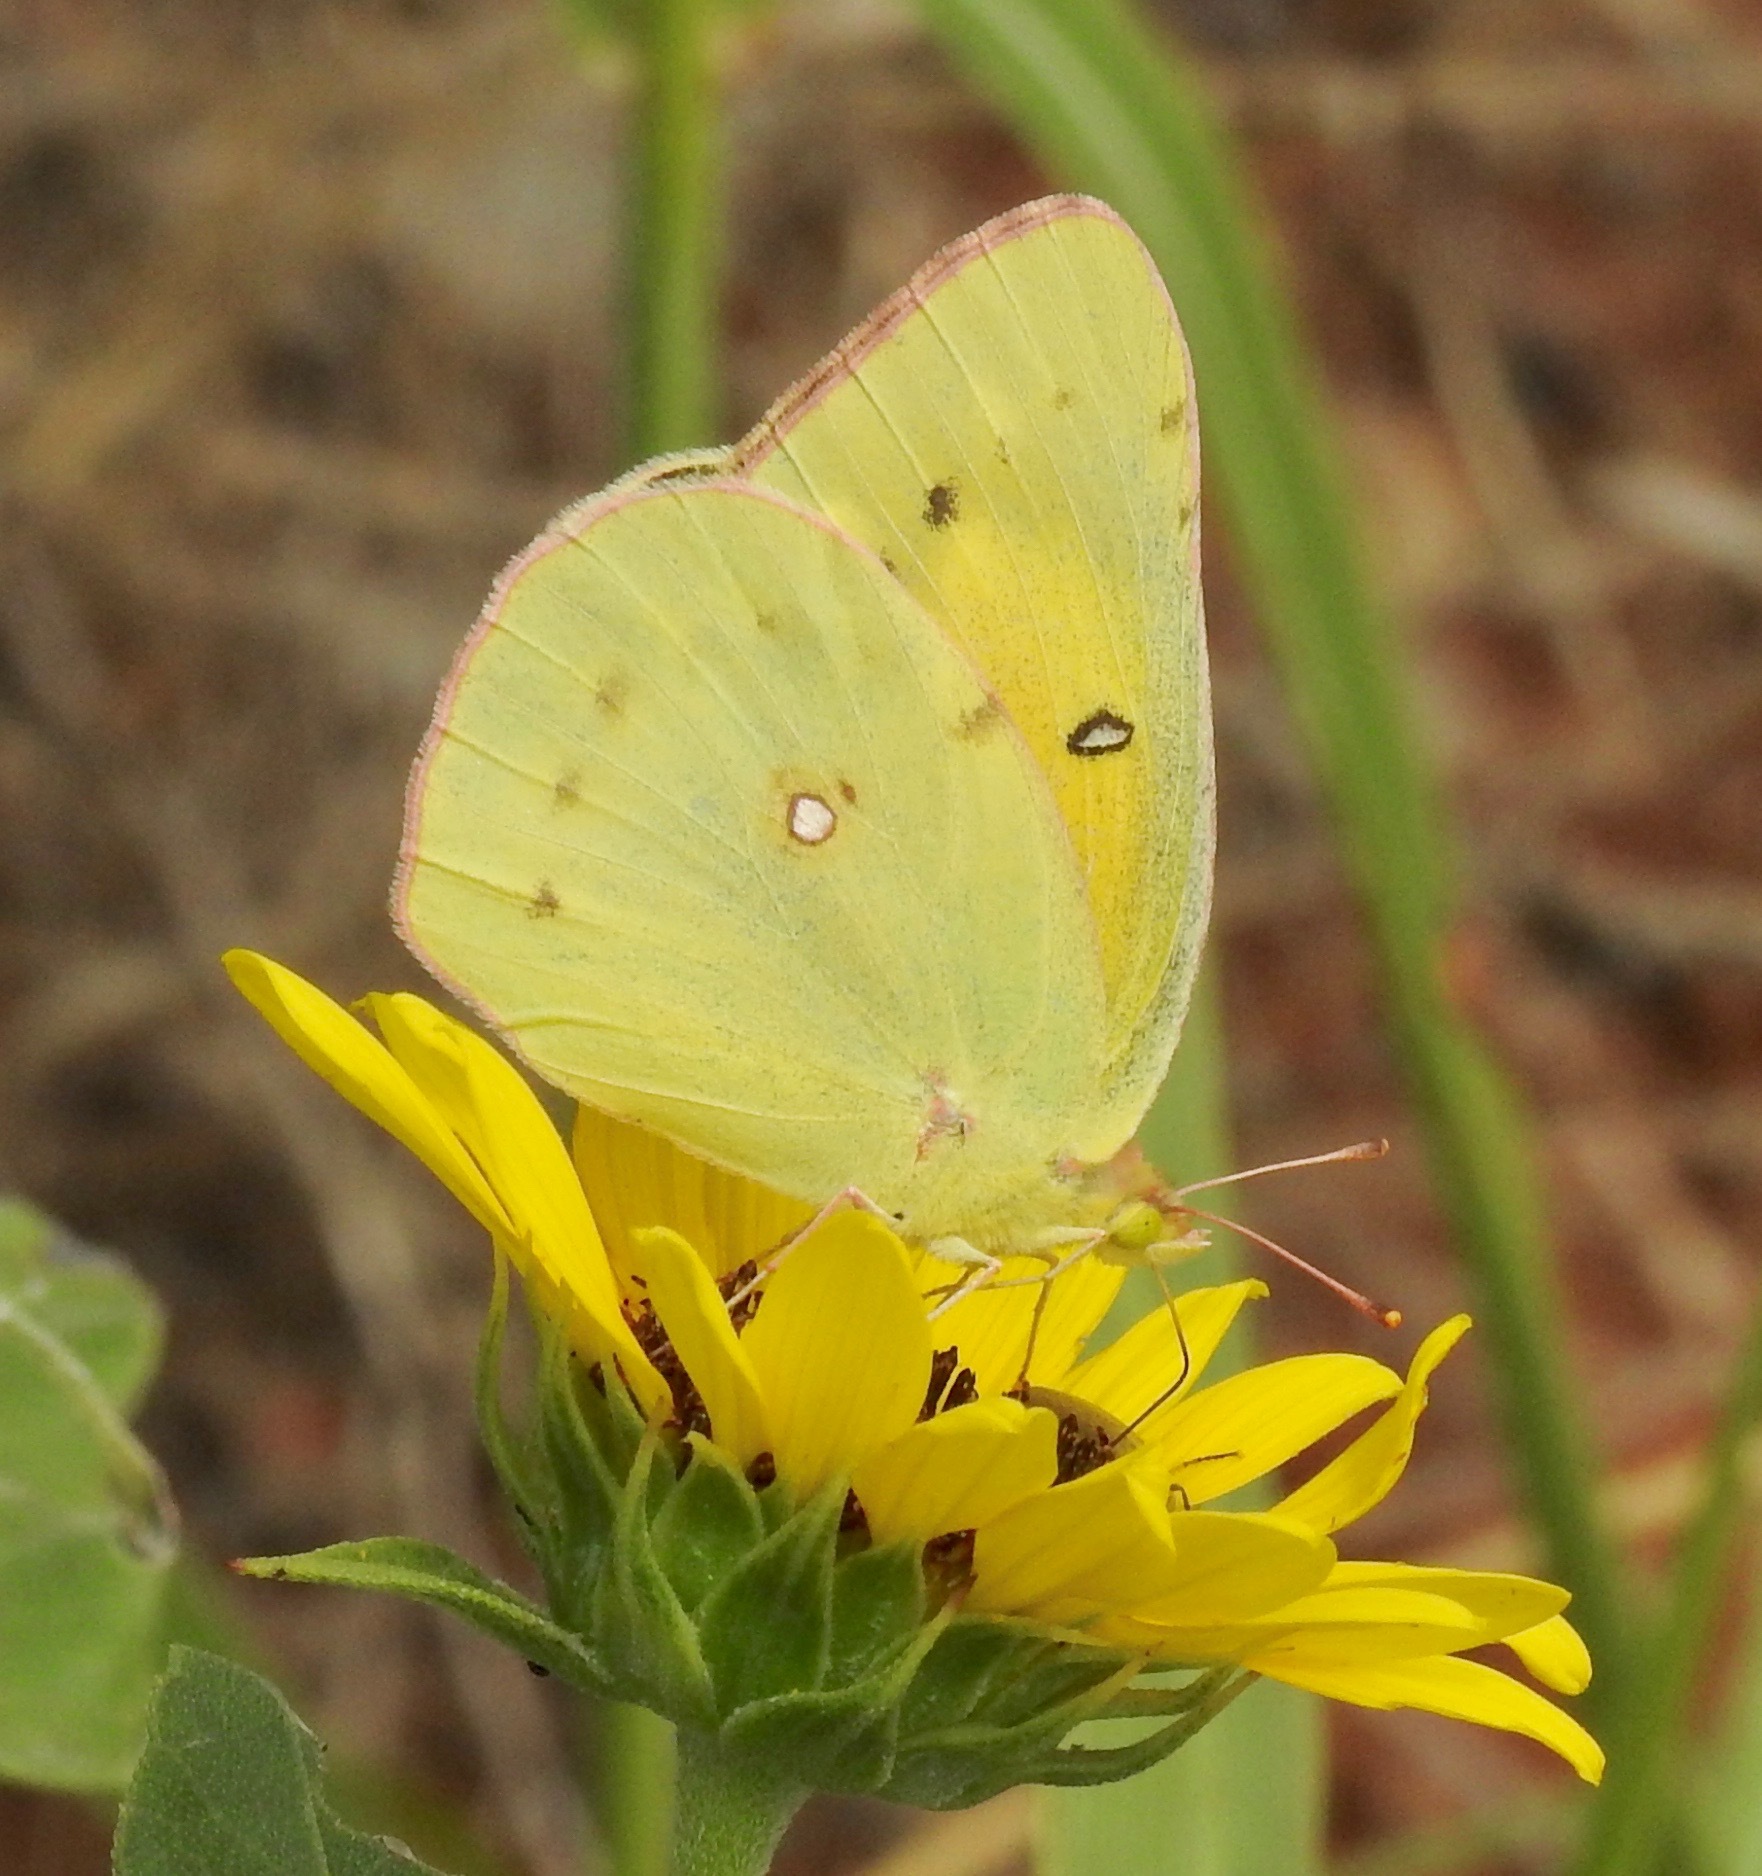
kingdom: Animalia
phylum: Arthropoda
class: Insecta
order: Lepidoptera
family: Pieridae
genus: Colias
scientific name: Colias eurytheme
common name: Alfalfa butterfly
